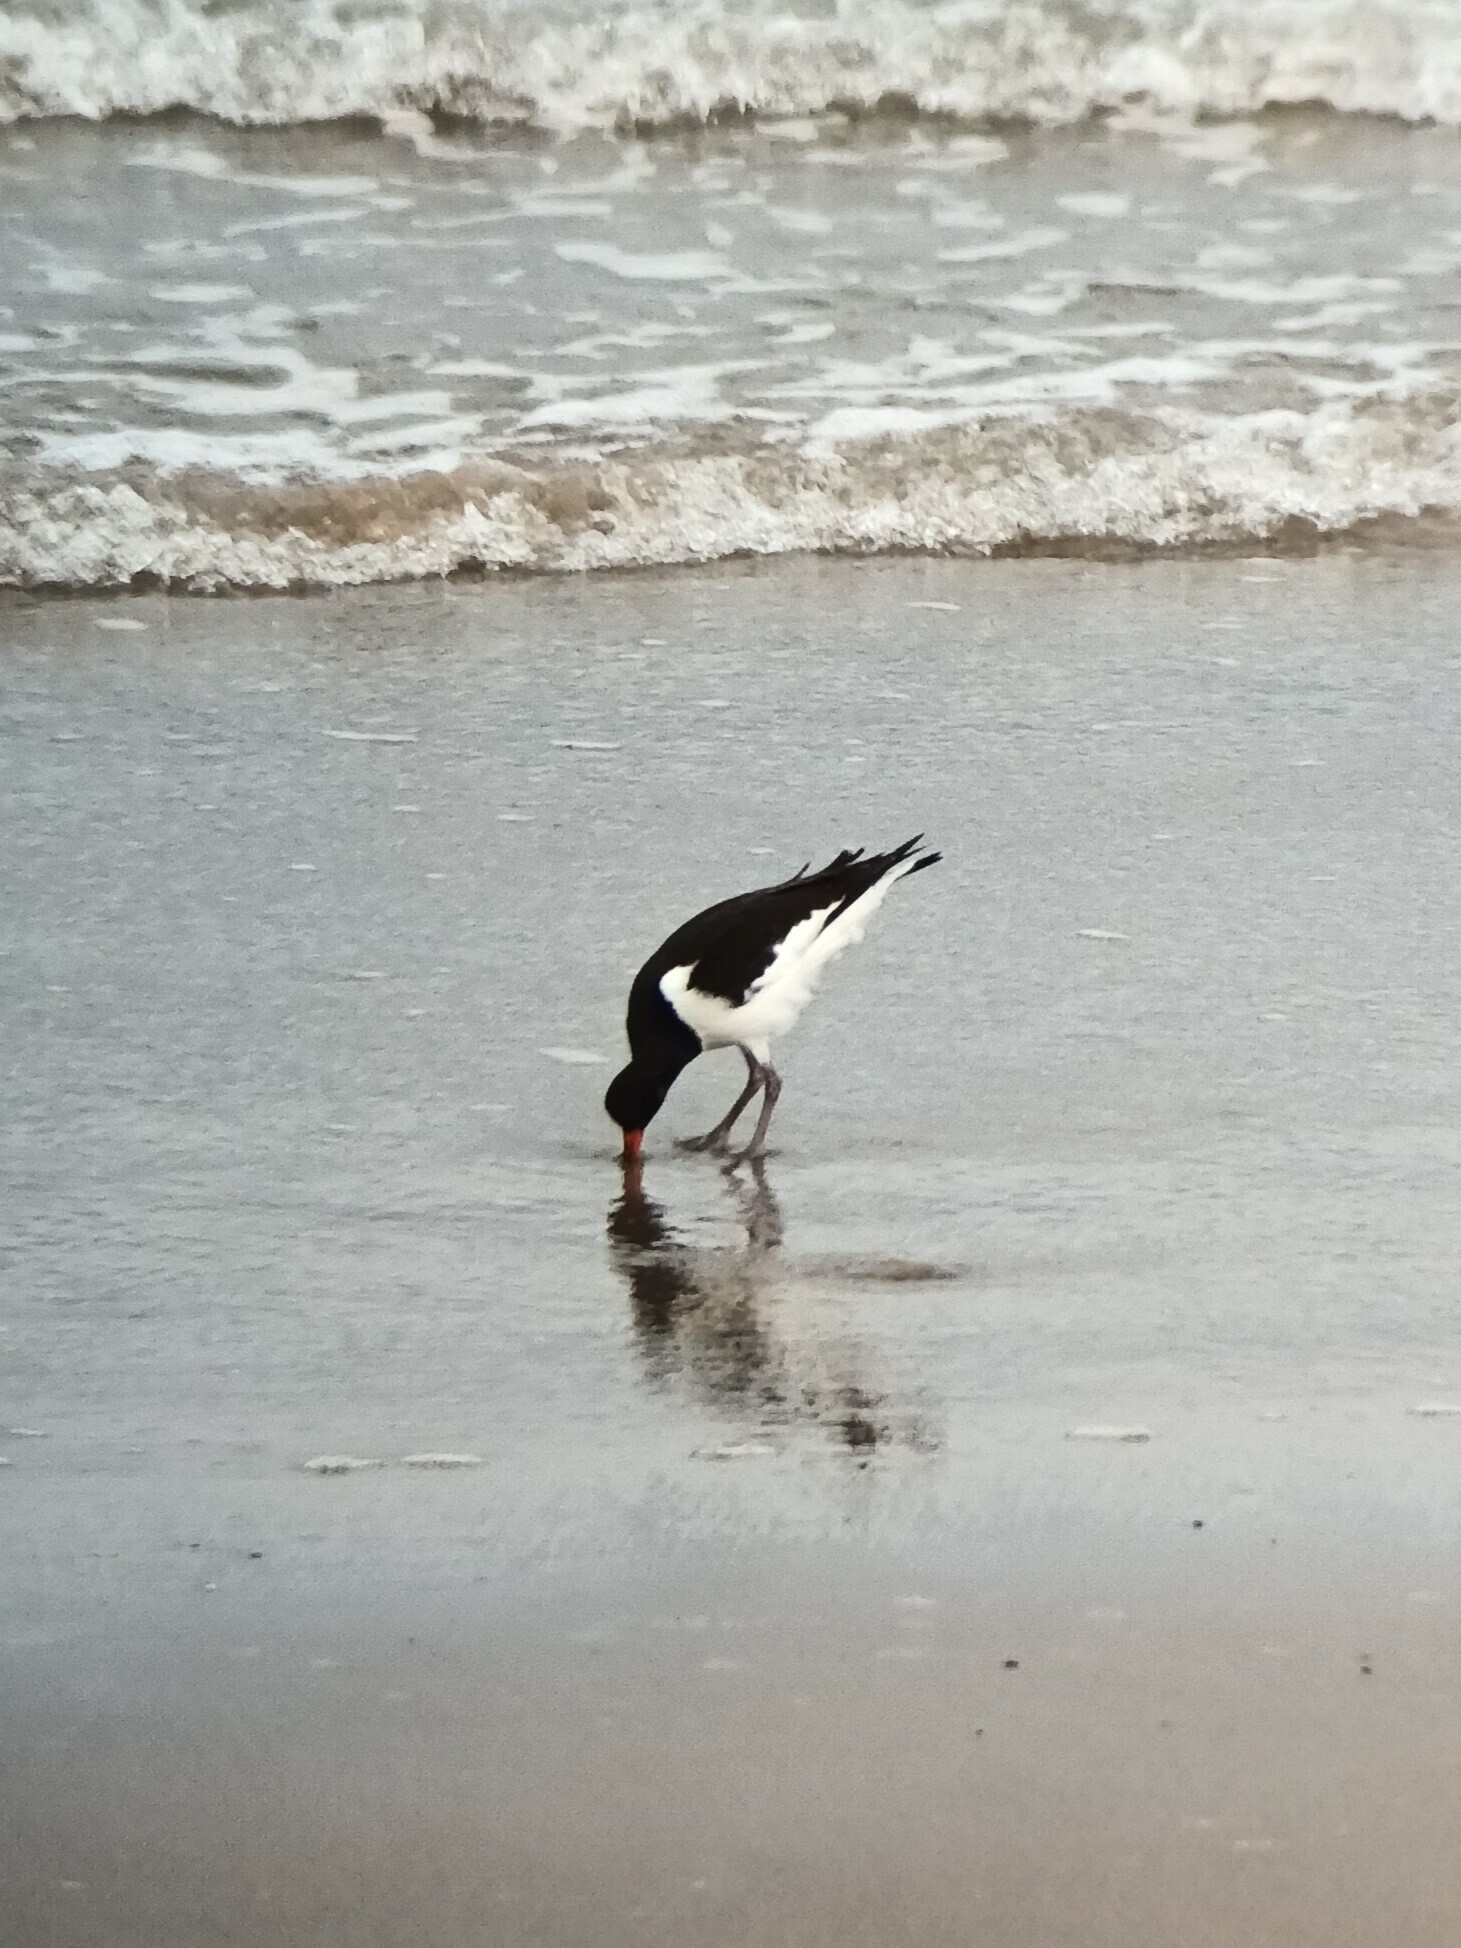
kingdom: Animalia
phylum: Chordata
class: Aves
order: Charadriiformes
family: Haematopodidae
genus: Haematopus
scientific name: Haematopus ostralegus
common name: Eurasian oystercatcher
